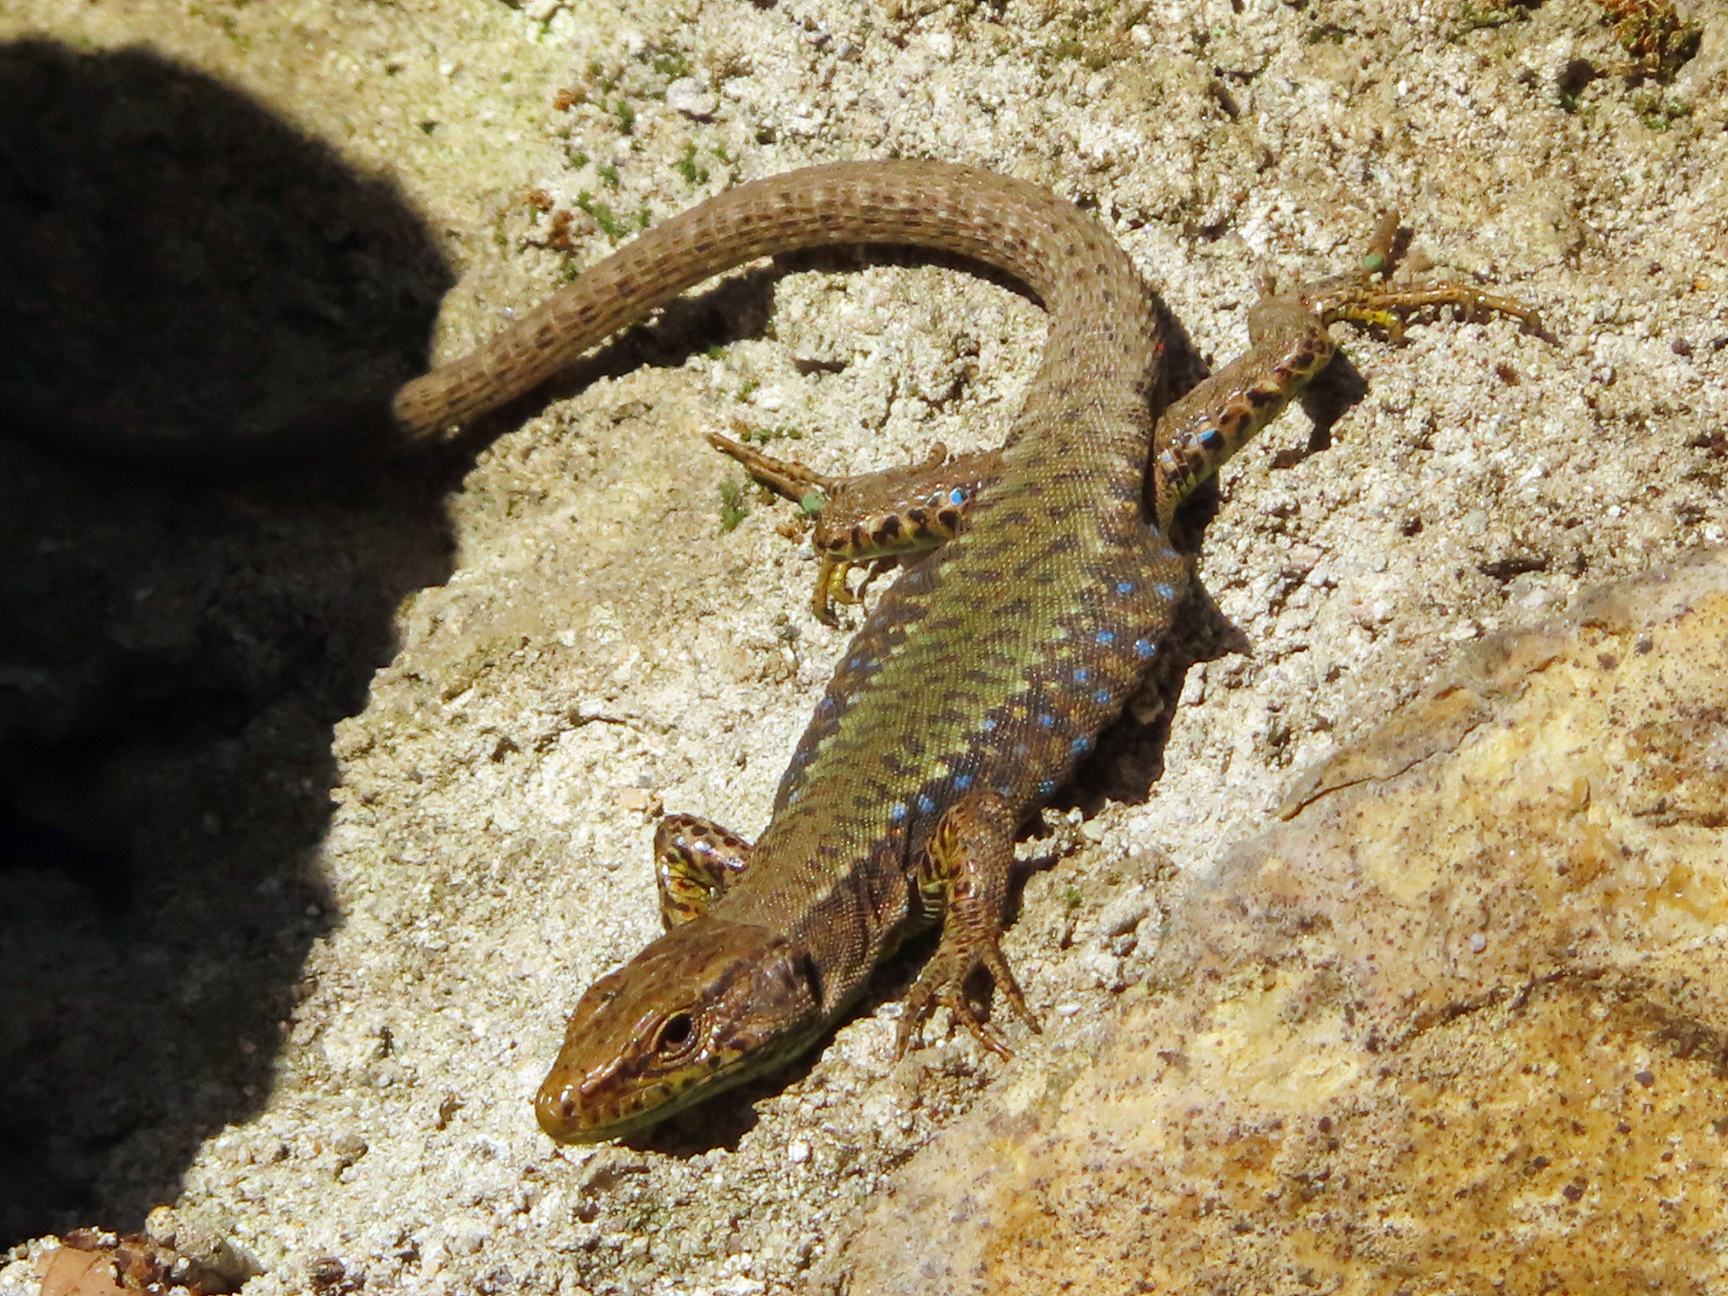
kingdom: Animalia
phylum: Chordata
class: Squamata
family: Lacertidae
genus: Darevskia
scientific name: Darevskia mixta
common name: Ajarian lizard
